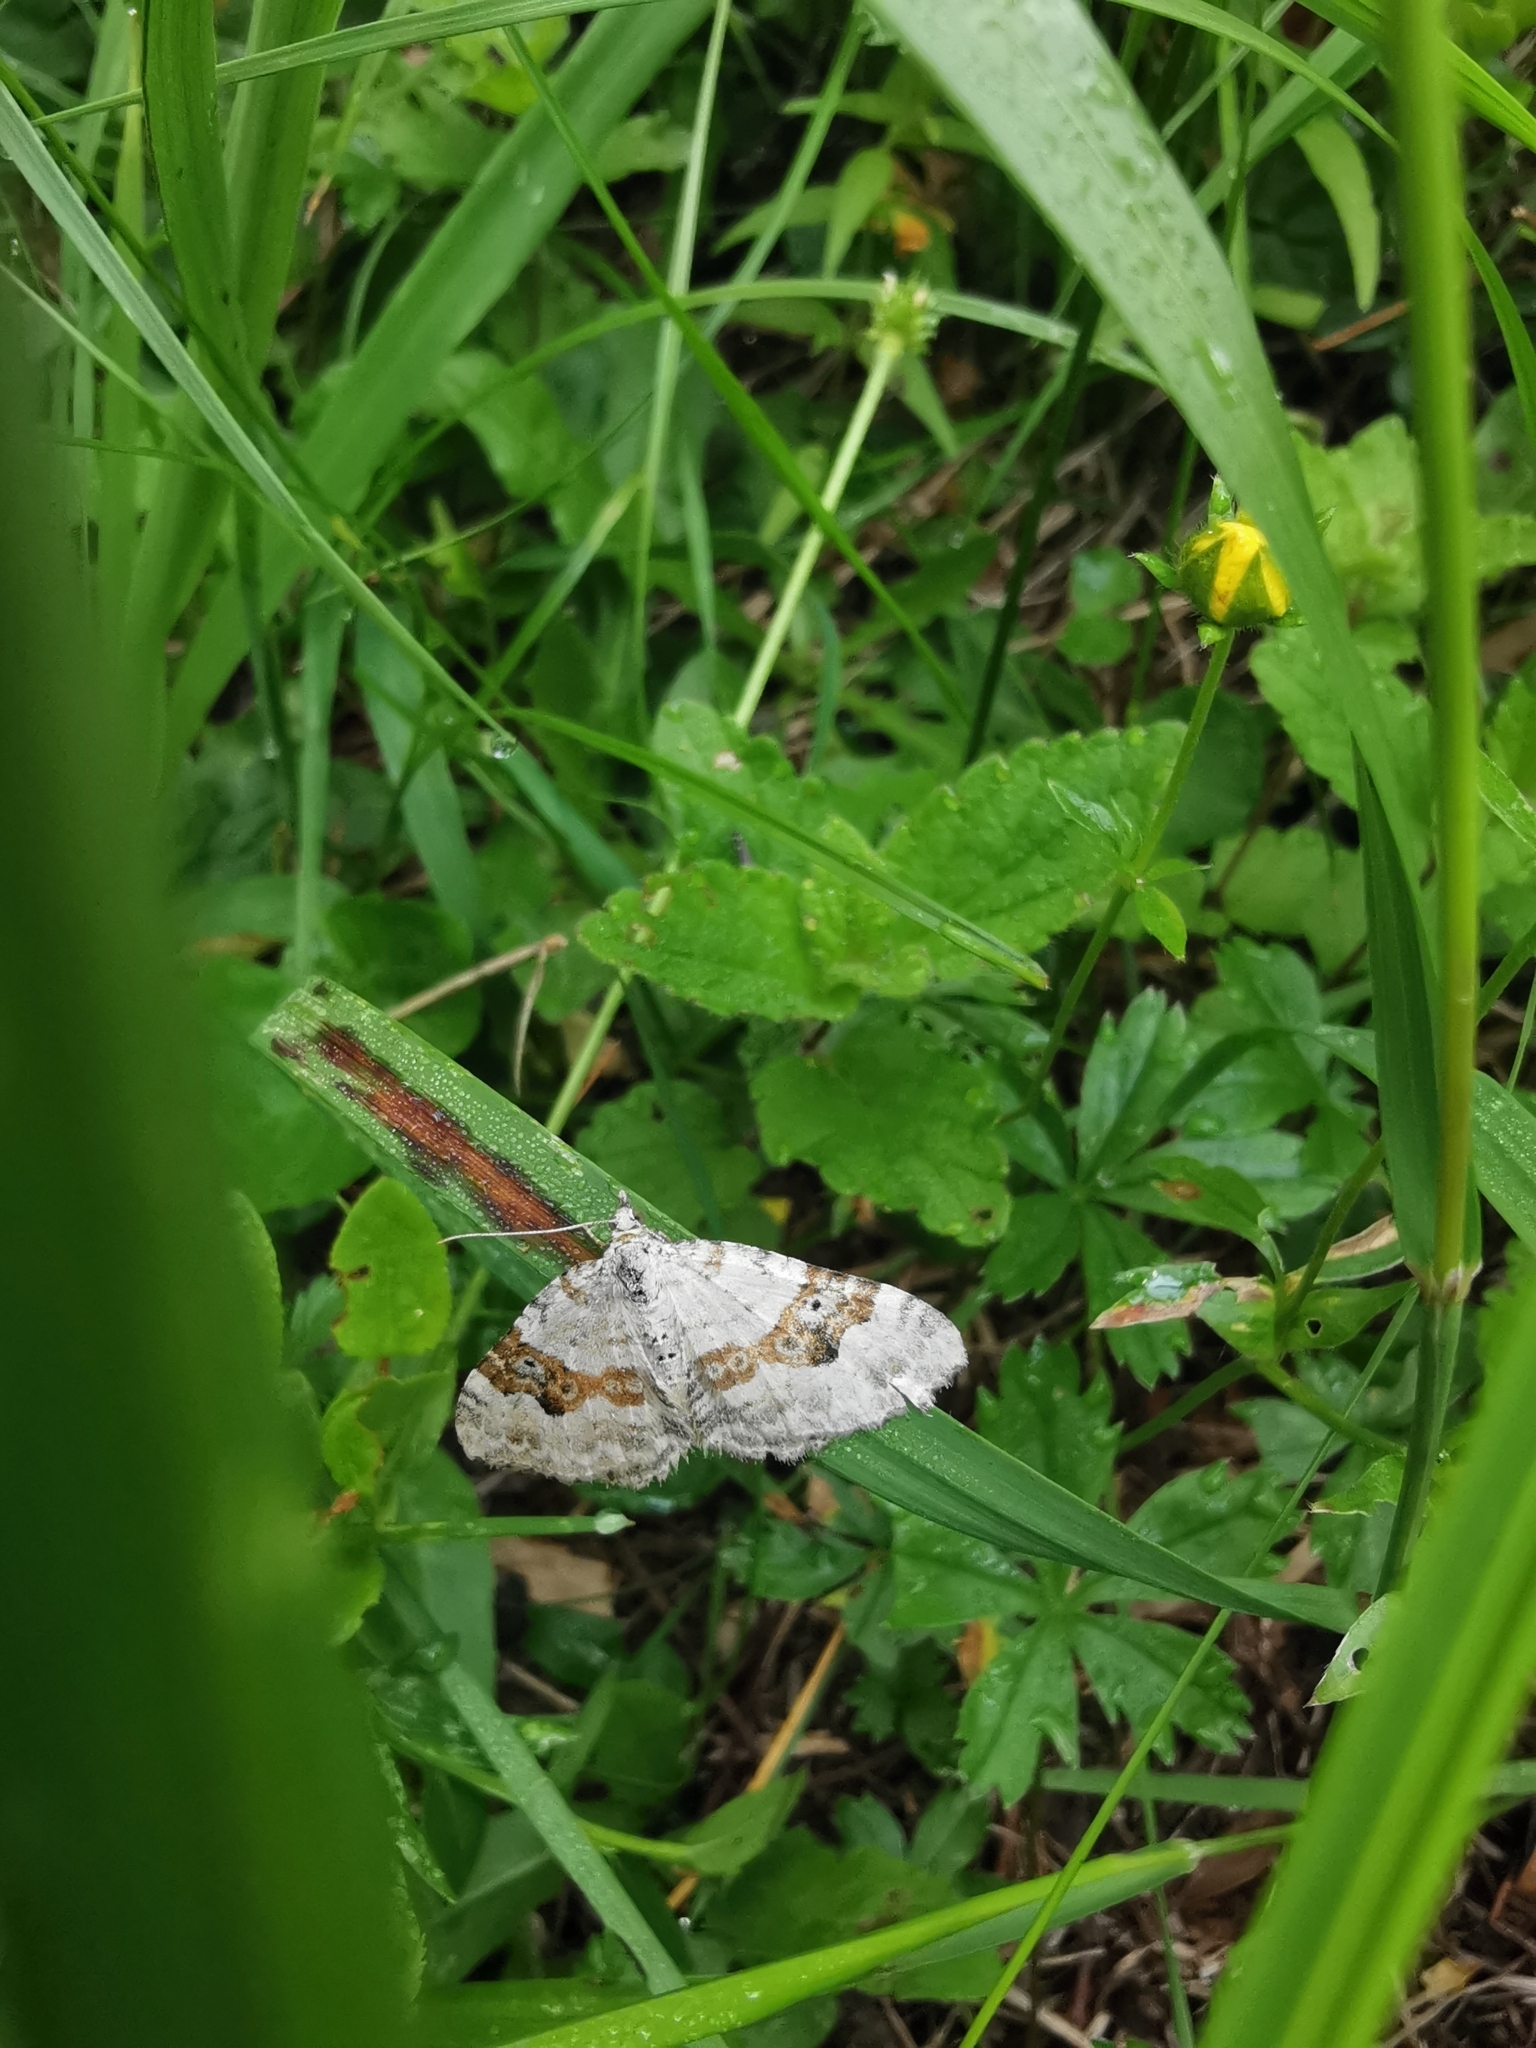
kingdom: Animalia
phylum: Arthropoda
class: Insecta
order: Lepidoptera
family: Geometridae
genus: Xanthorhoe
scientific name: Xanthorhoe montanata
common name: Silver-ground carpet
